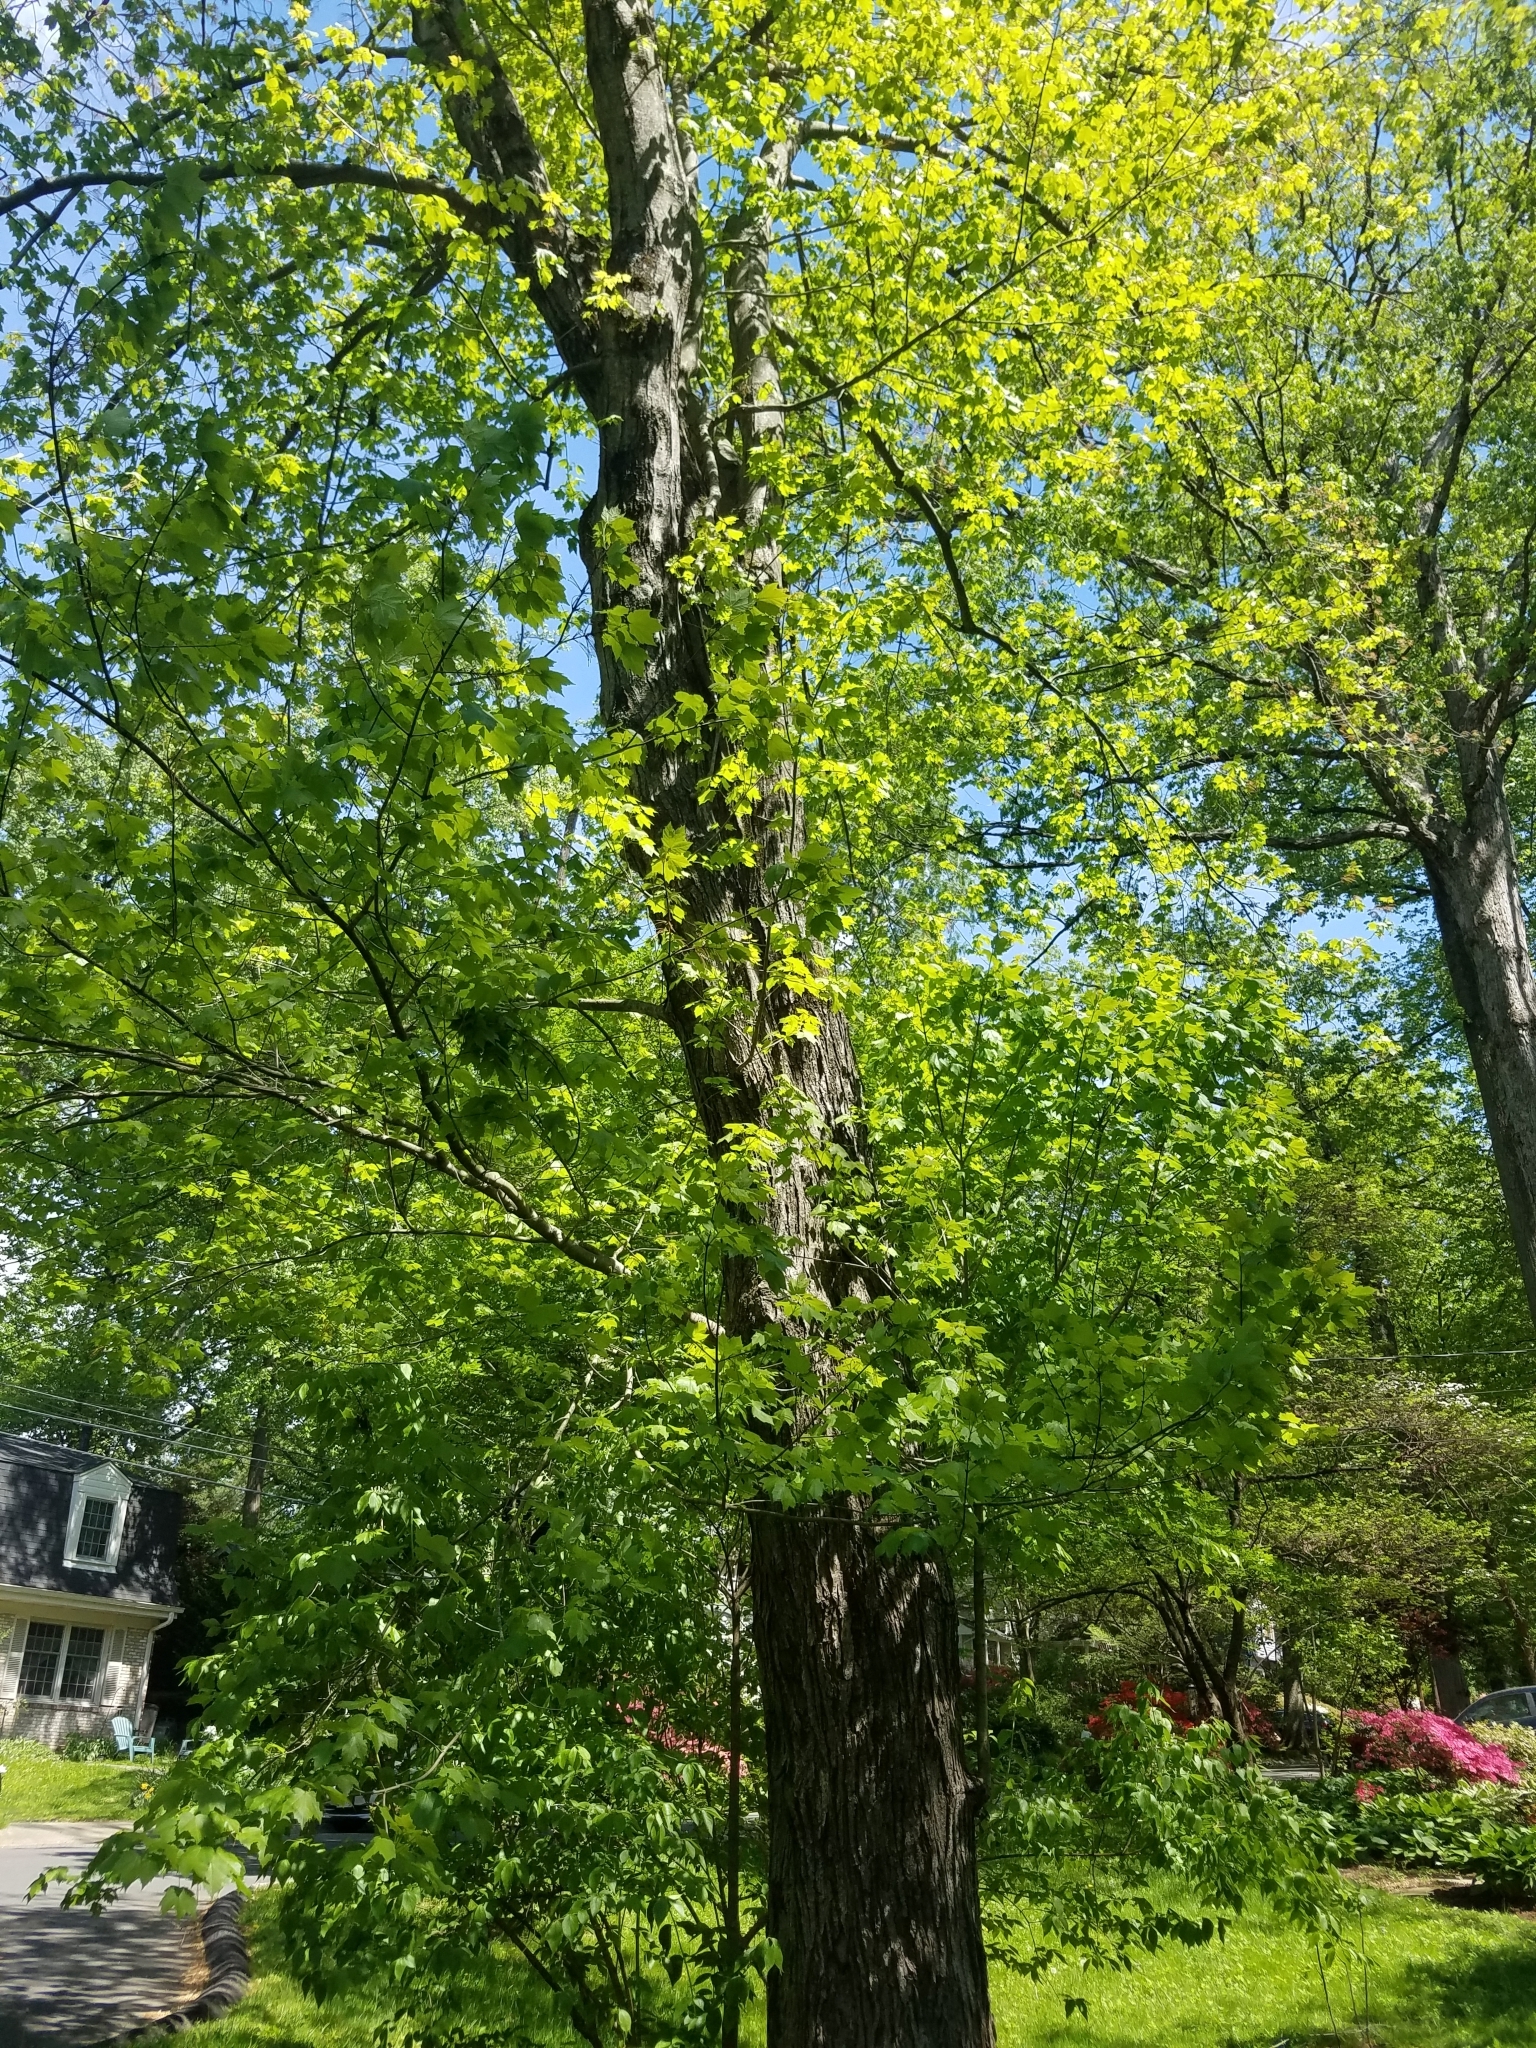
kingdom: Plantae
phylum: Tracheophyta
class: Magnoliopsida
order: Sapindales
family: Sapindaceae
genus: Acer
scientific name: Acer rubrum
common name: Red maple
